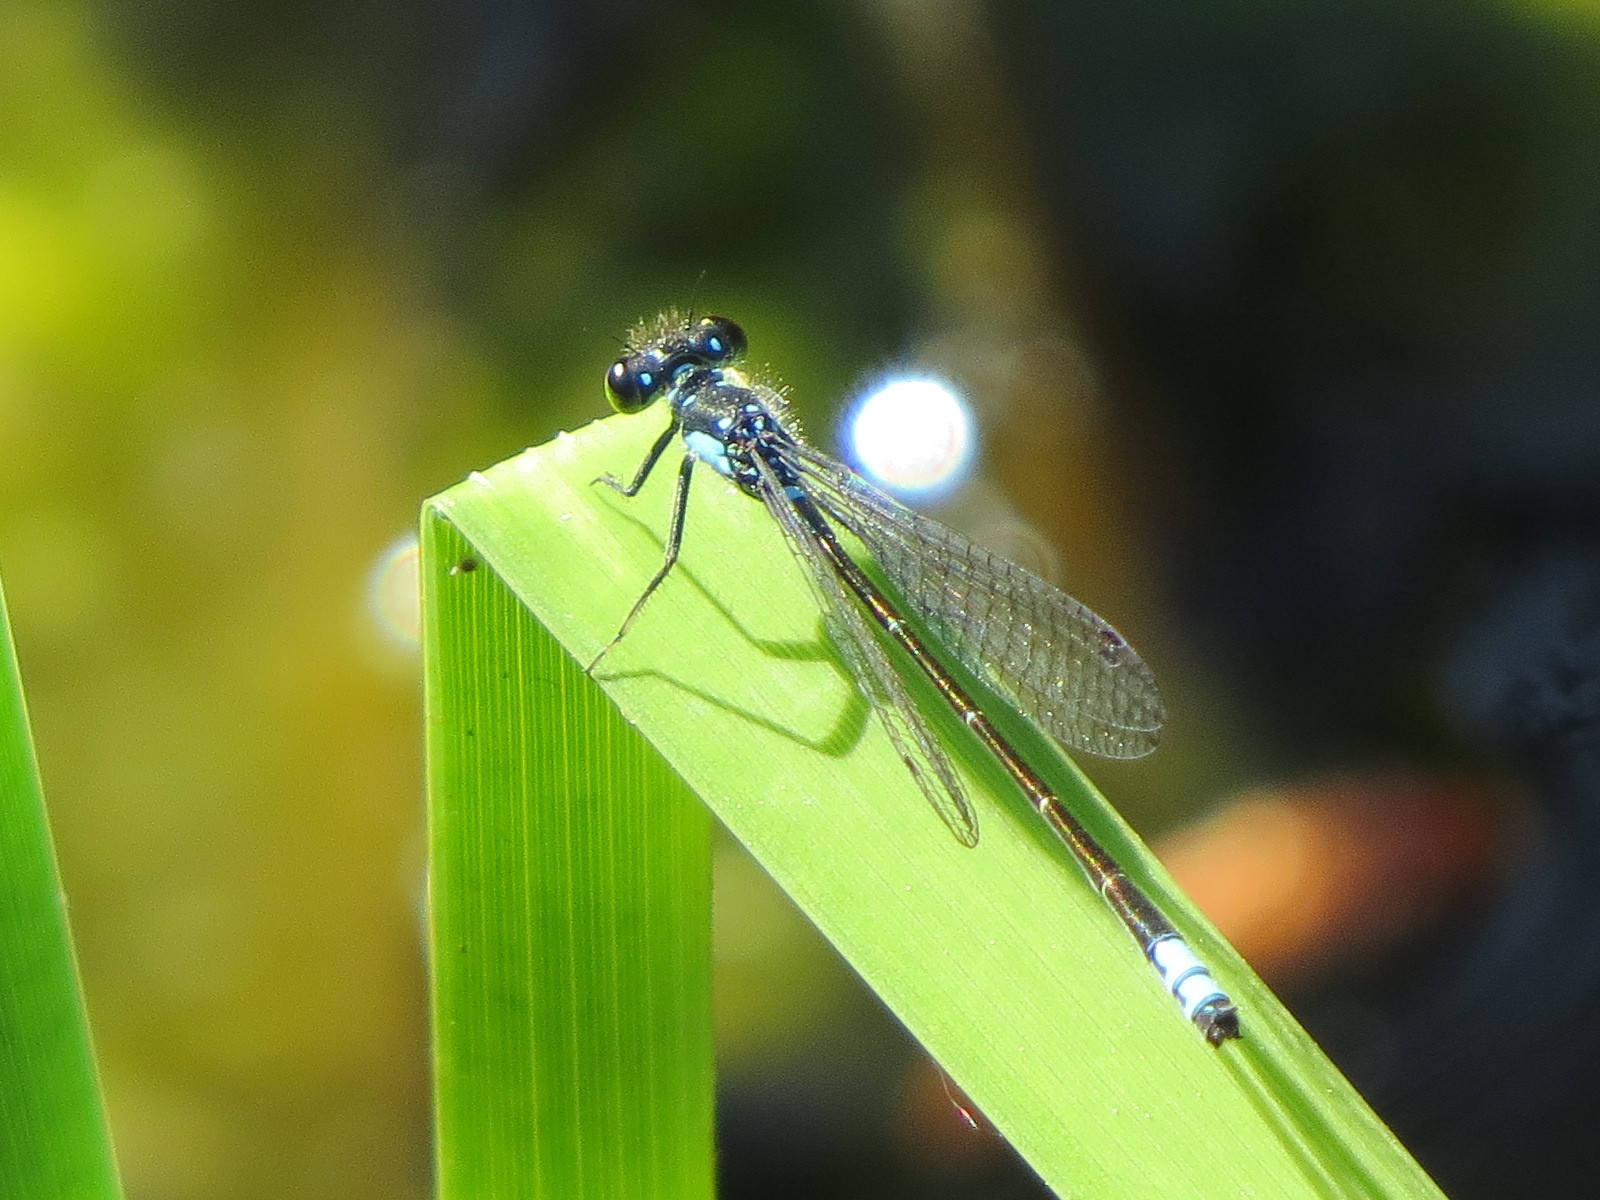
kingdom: Animalia
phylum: Arthropoda
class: Insecta
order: Odonata
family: Coenagrionidae
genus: Ischnura
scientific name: Ischnura cervula
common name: Pacific forktail
